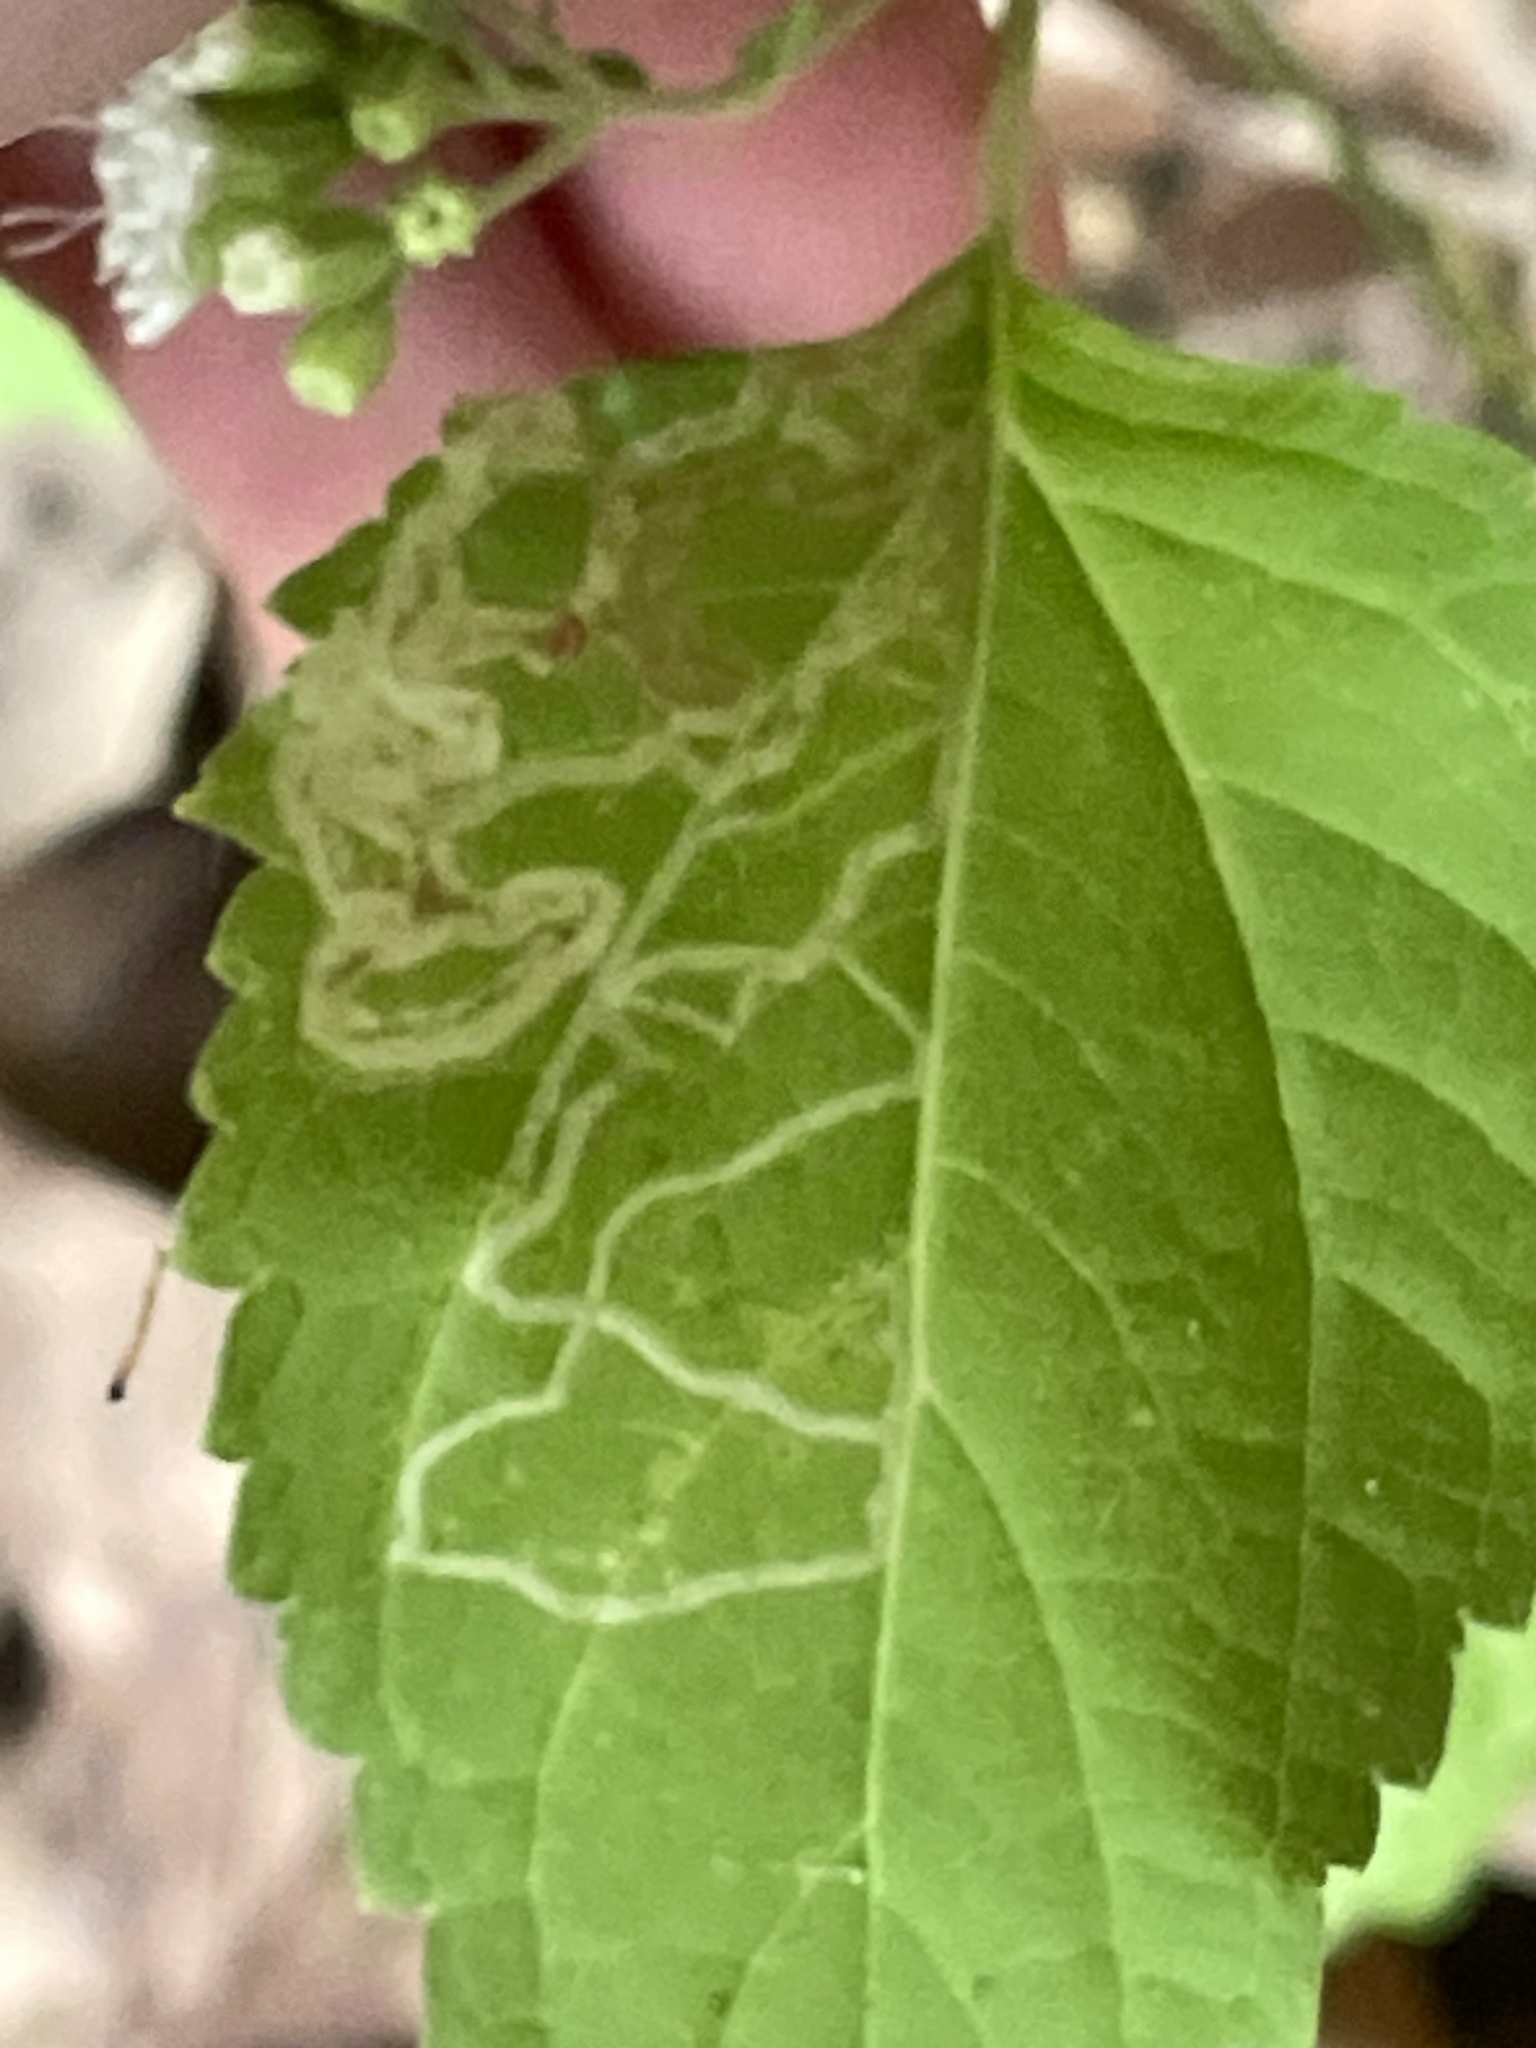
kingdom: Animalia
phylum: Arthropoda
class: Insecta
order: Diptera
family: Agromyzidae
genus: Liriomyza
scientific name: Liriomyza
